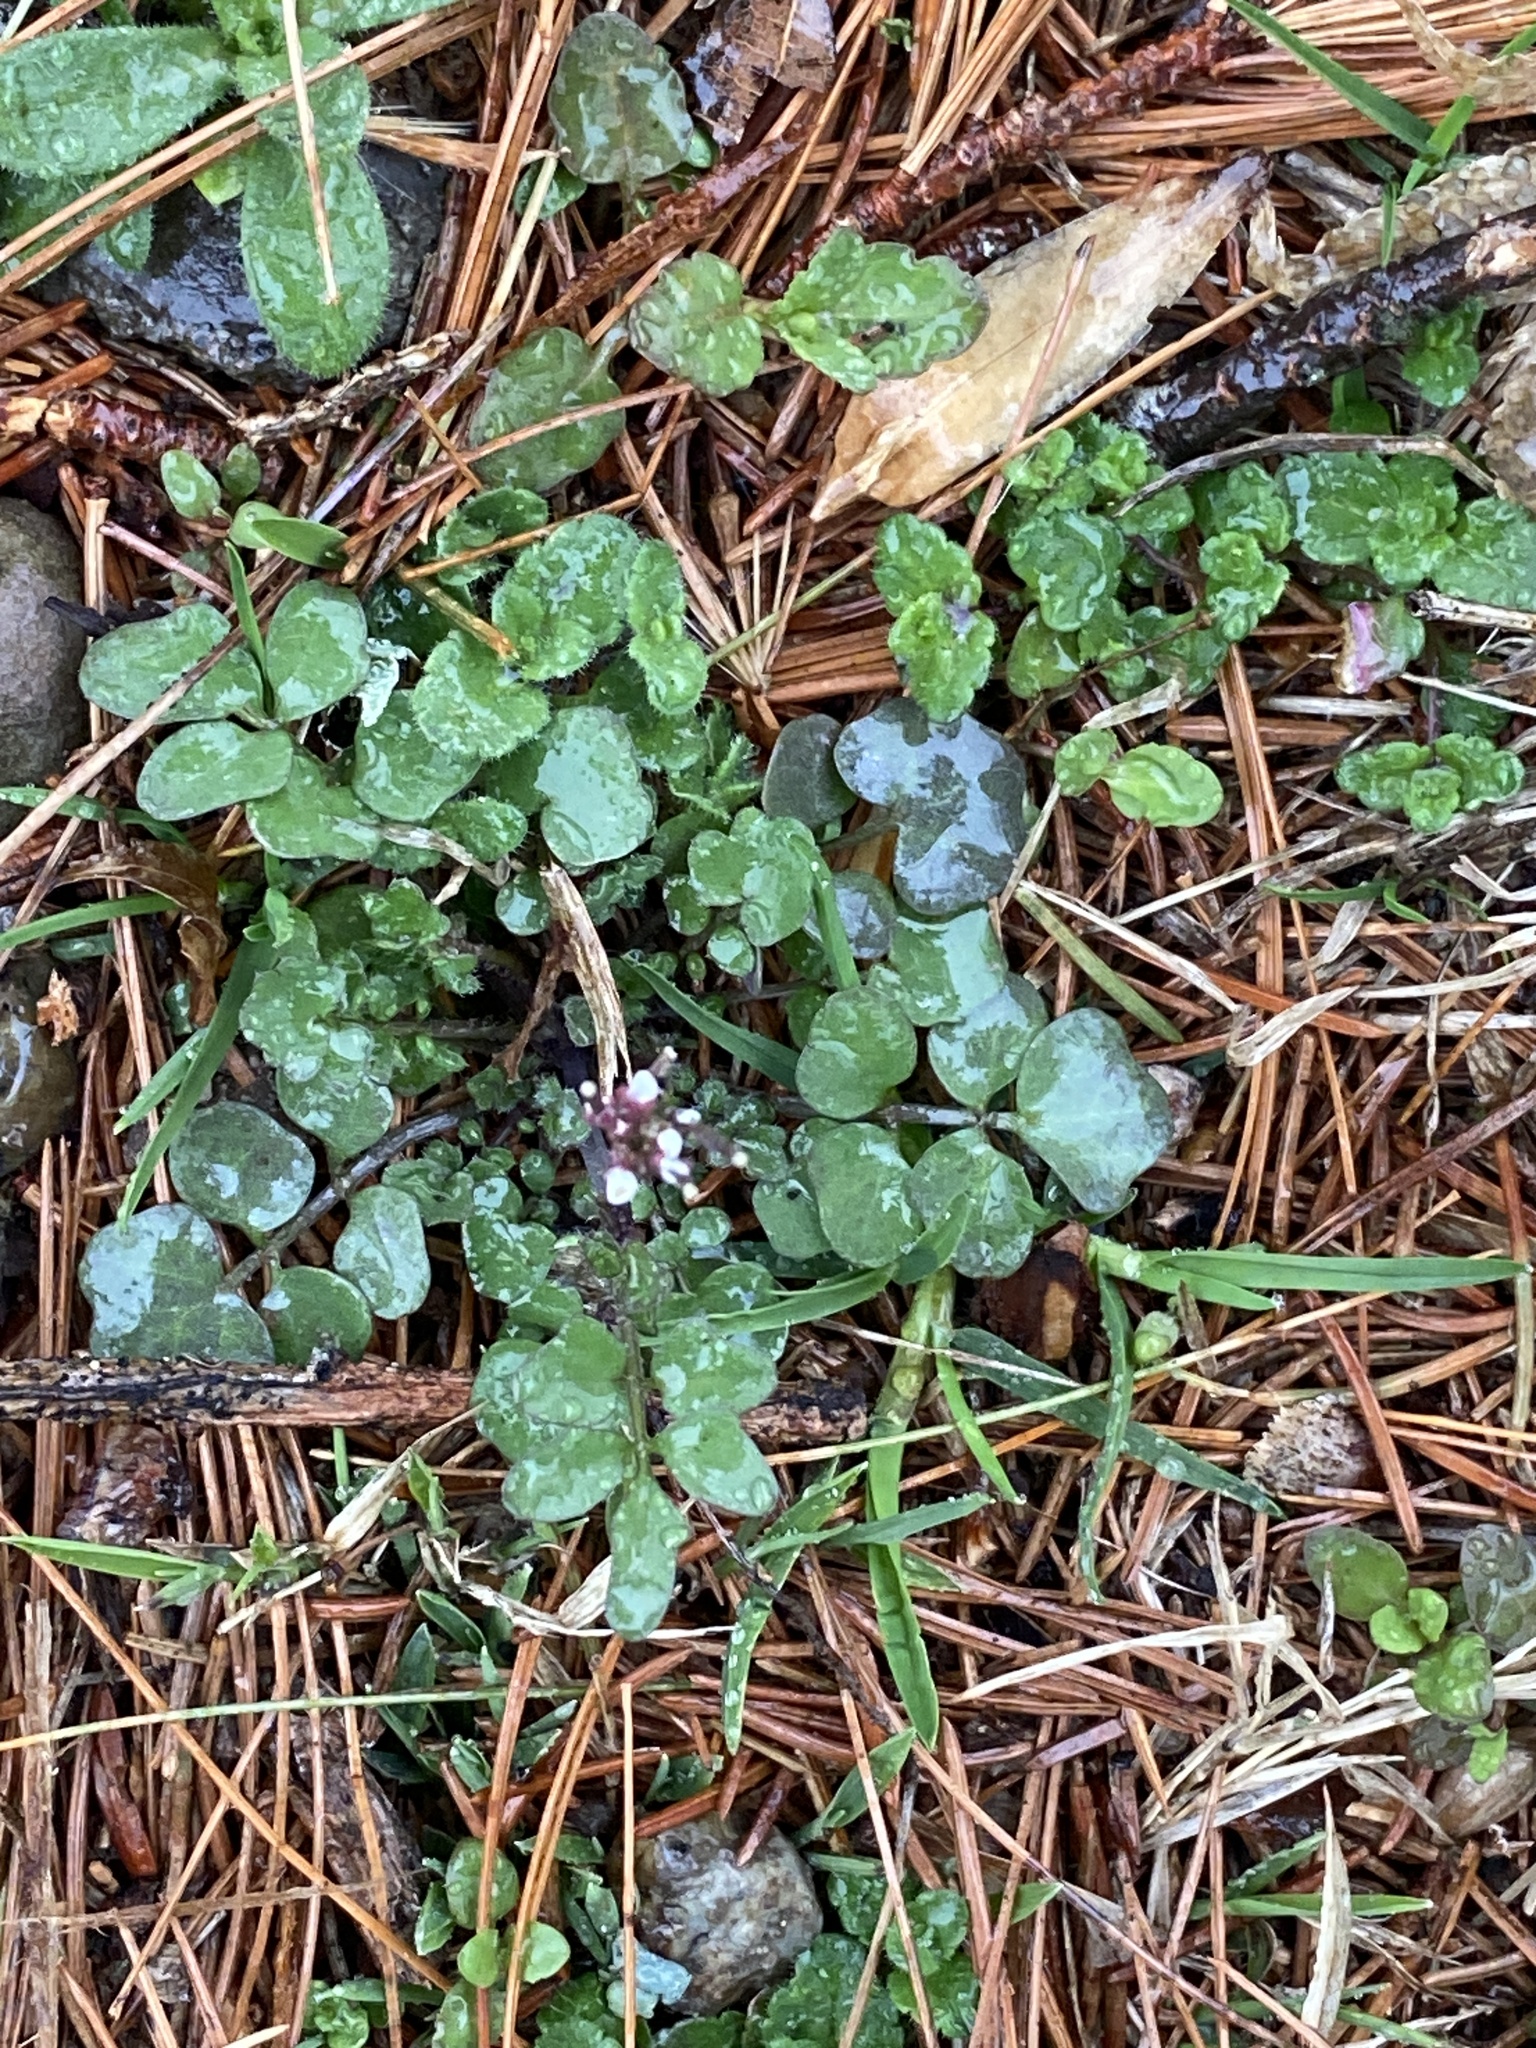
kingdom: Plantae
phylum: Tracheophyta
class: Magnoliopsida
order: Brassicales
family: Brassicaceae
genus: Cardamine
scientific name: Cardamine hirsuta
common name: Hairy bittercress
